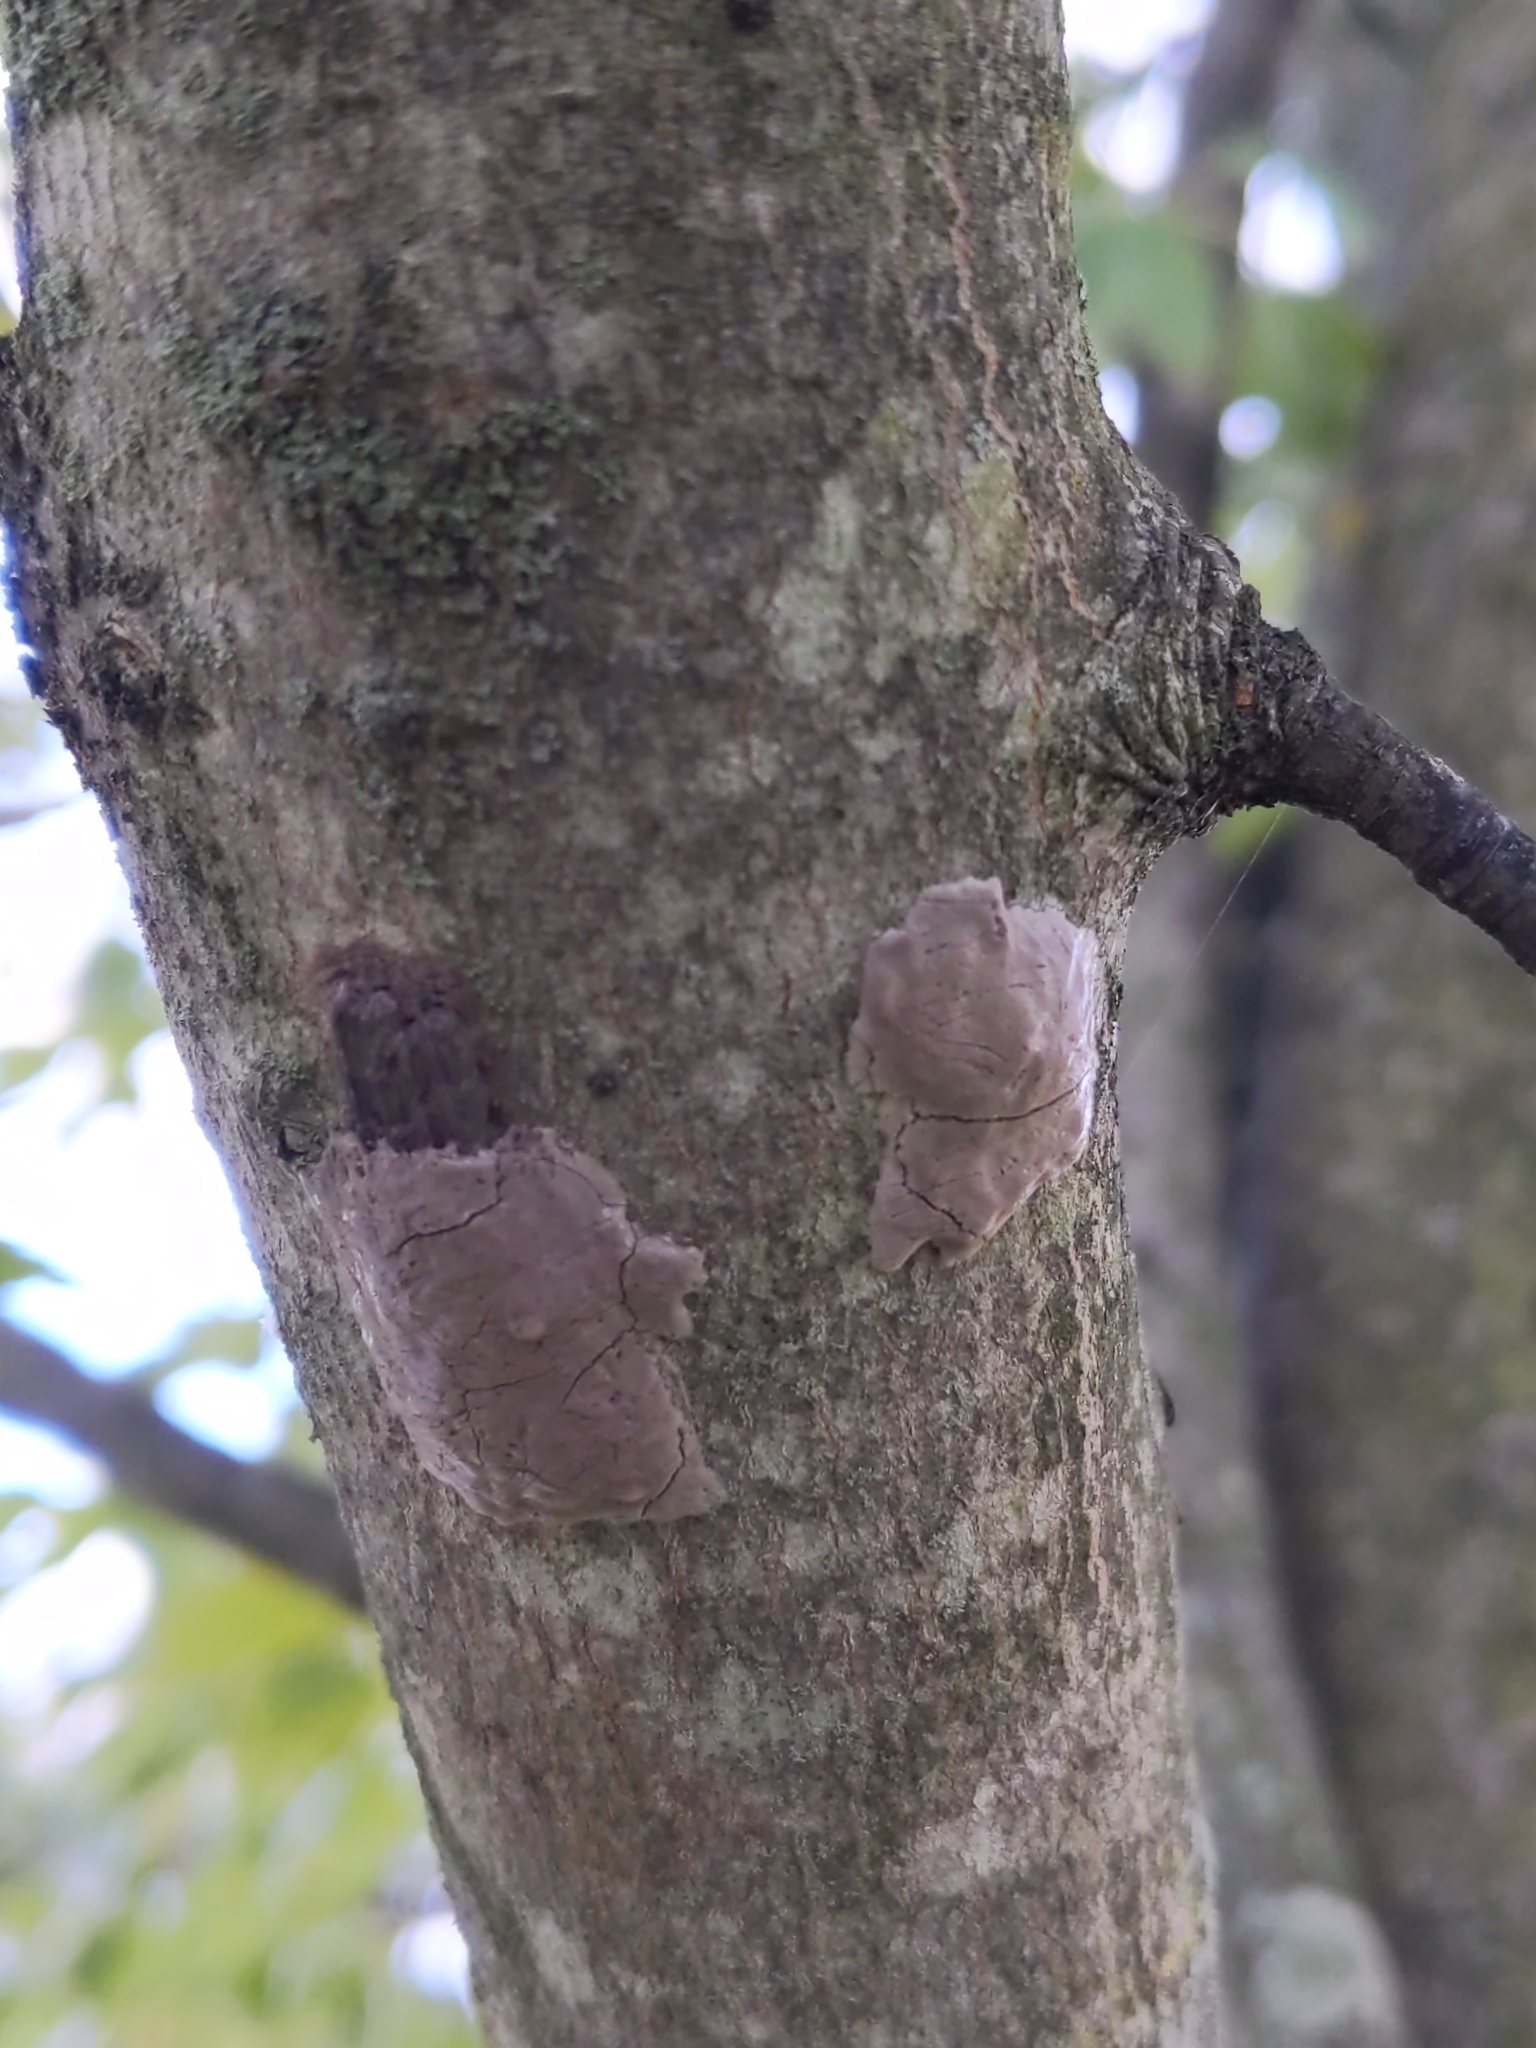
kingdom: Animalia
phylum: Arthropoda
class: Insecta
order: Hemiptera
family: Fulgoridae
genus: Lycorma
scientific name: Lycorma delicatula
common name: Spotted lanternfly
